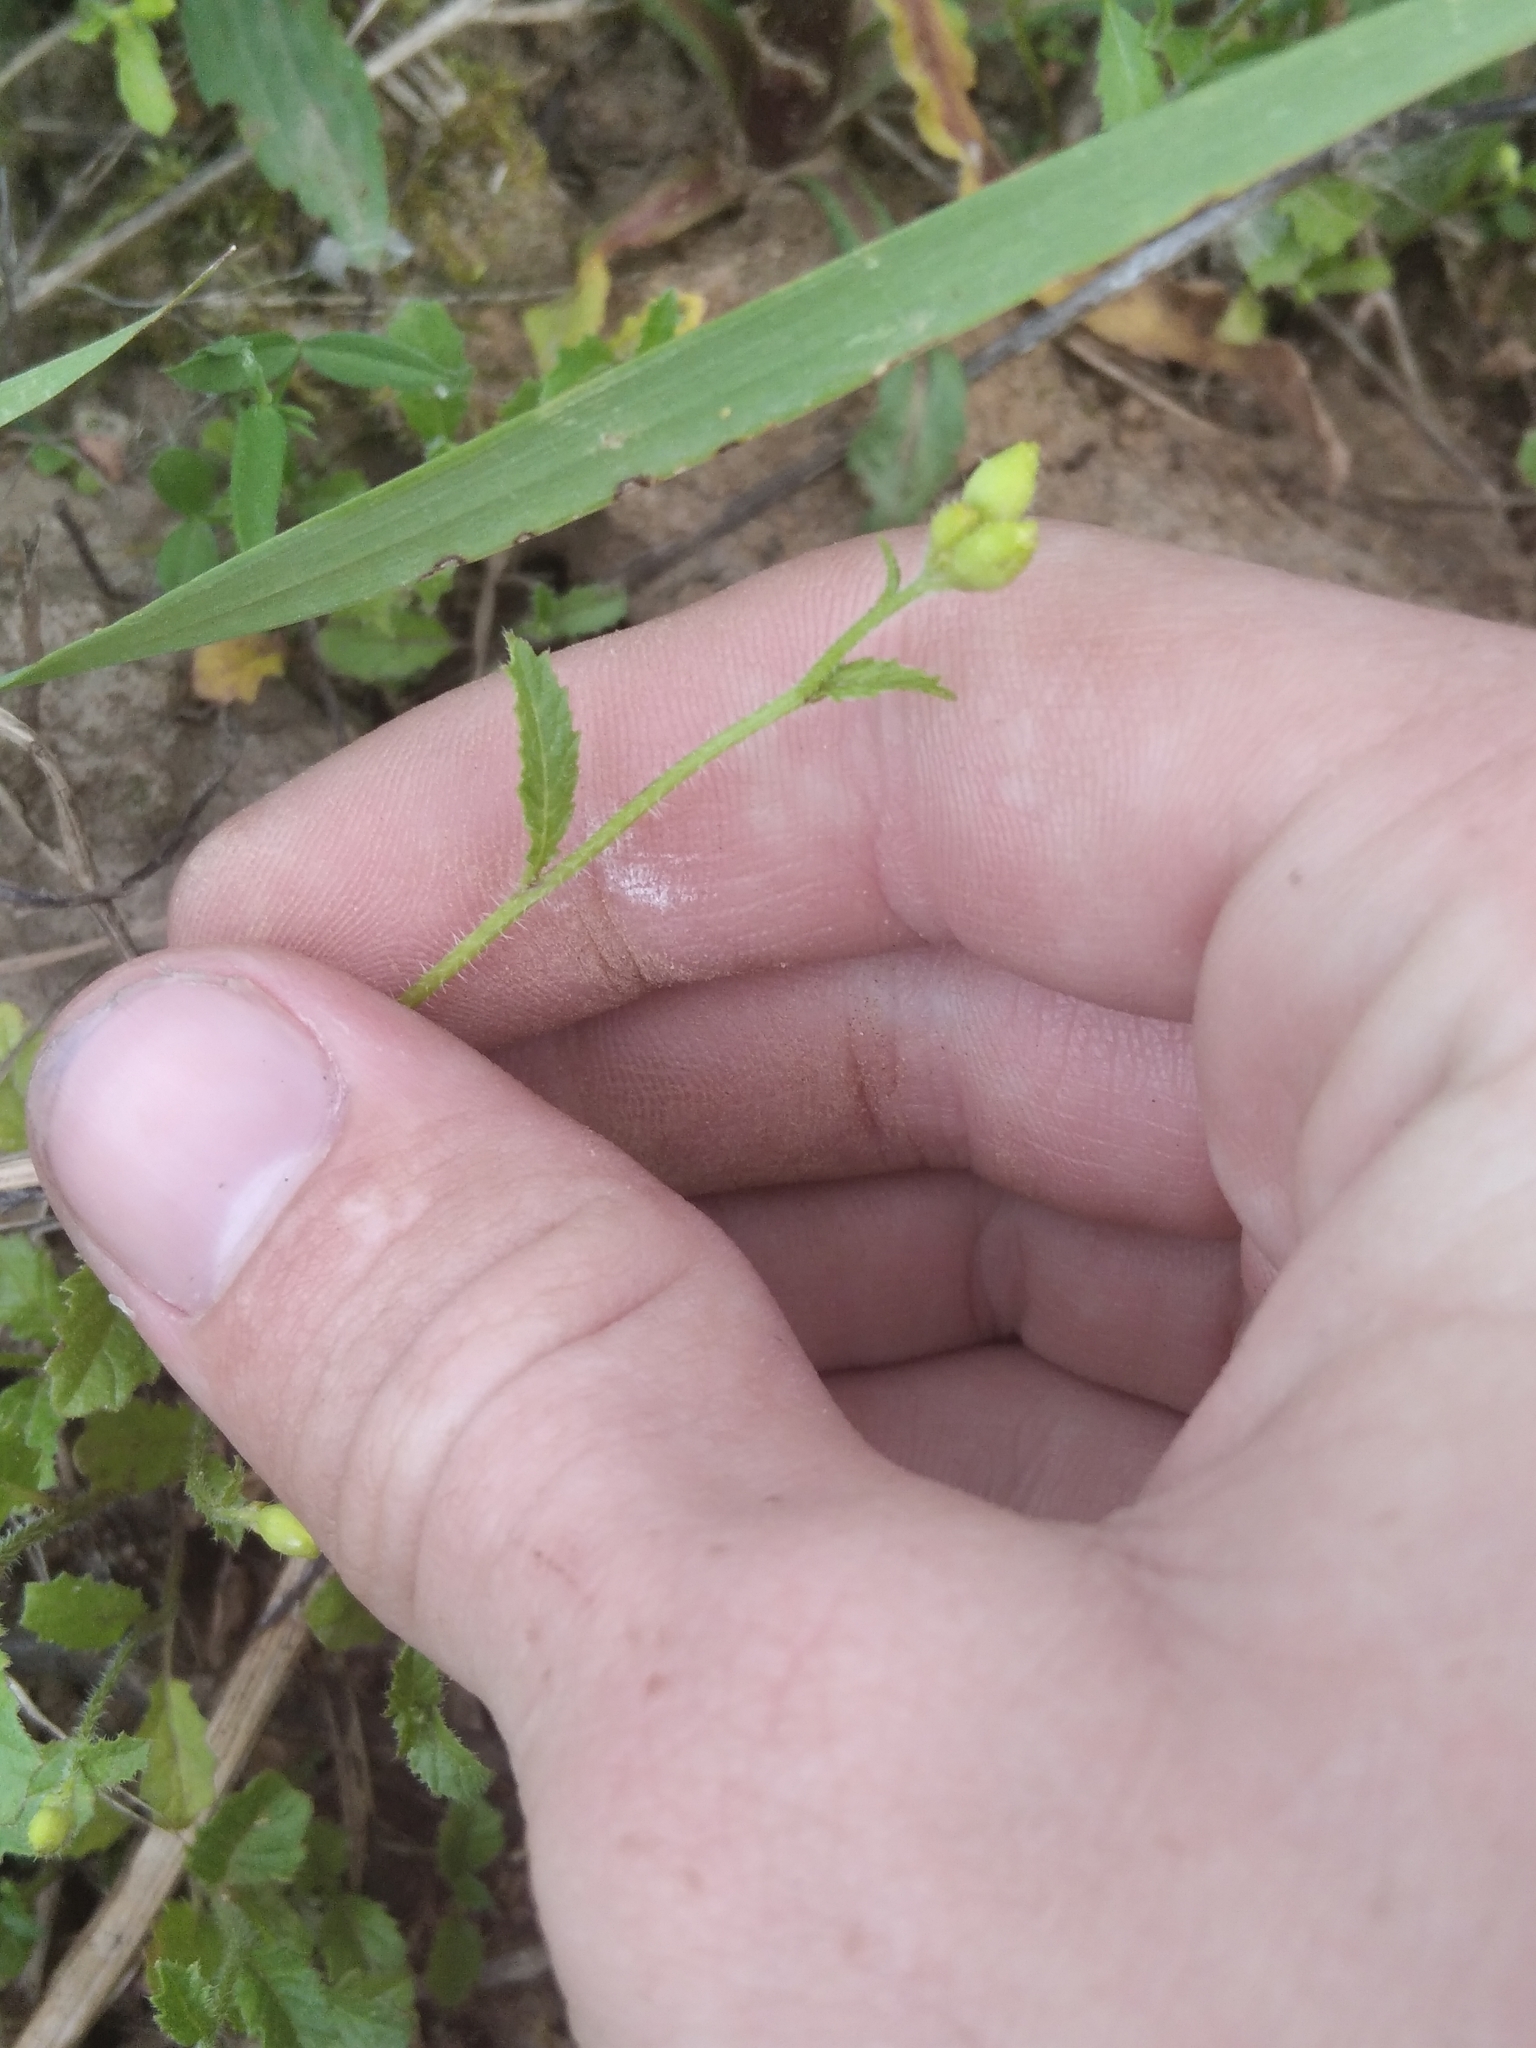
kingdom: Plantae
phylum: Tracheophyta
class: Magnoliopsida
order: Brassicales
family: Brassicaceae
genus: Sinapis
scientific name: Sinapis arvensis
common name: Charlock
